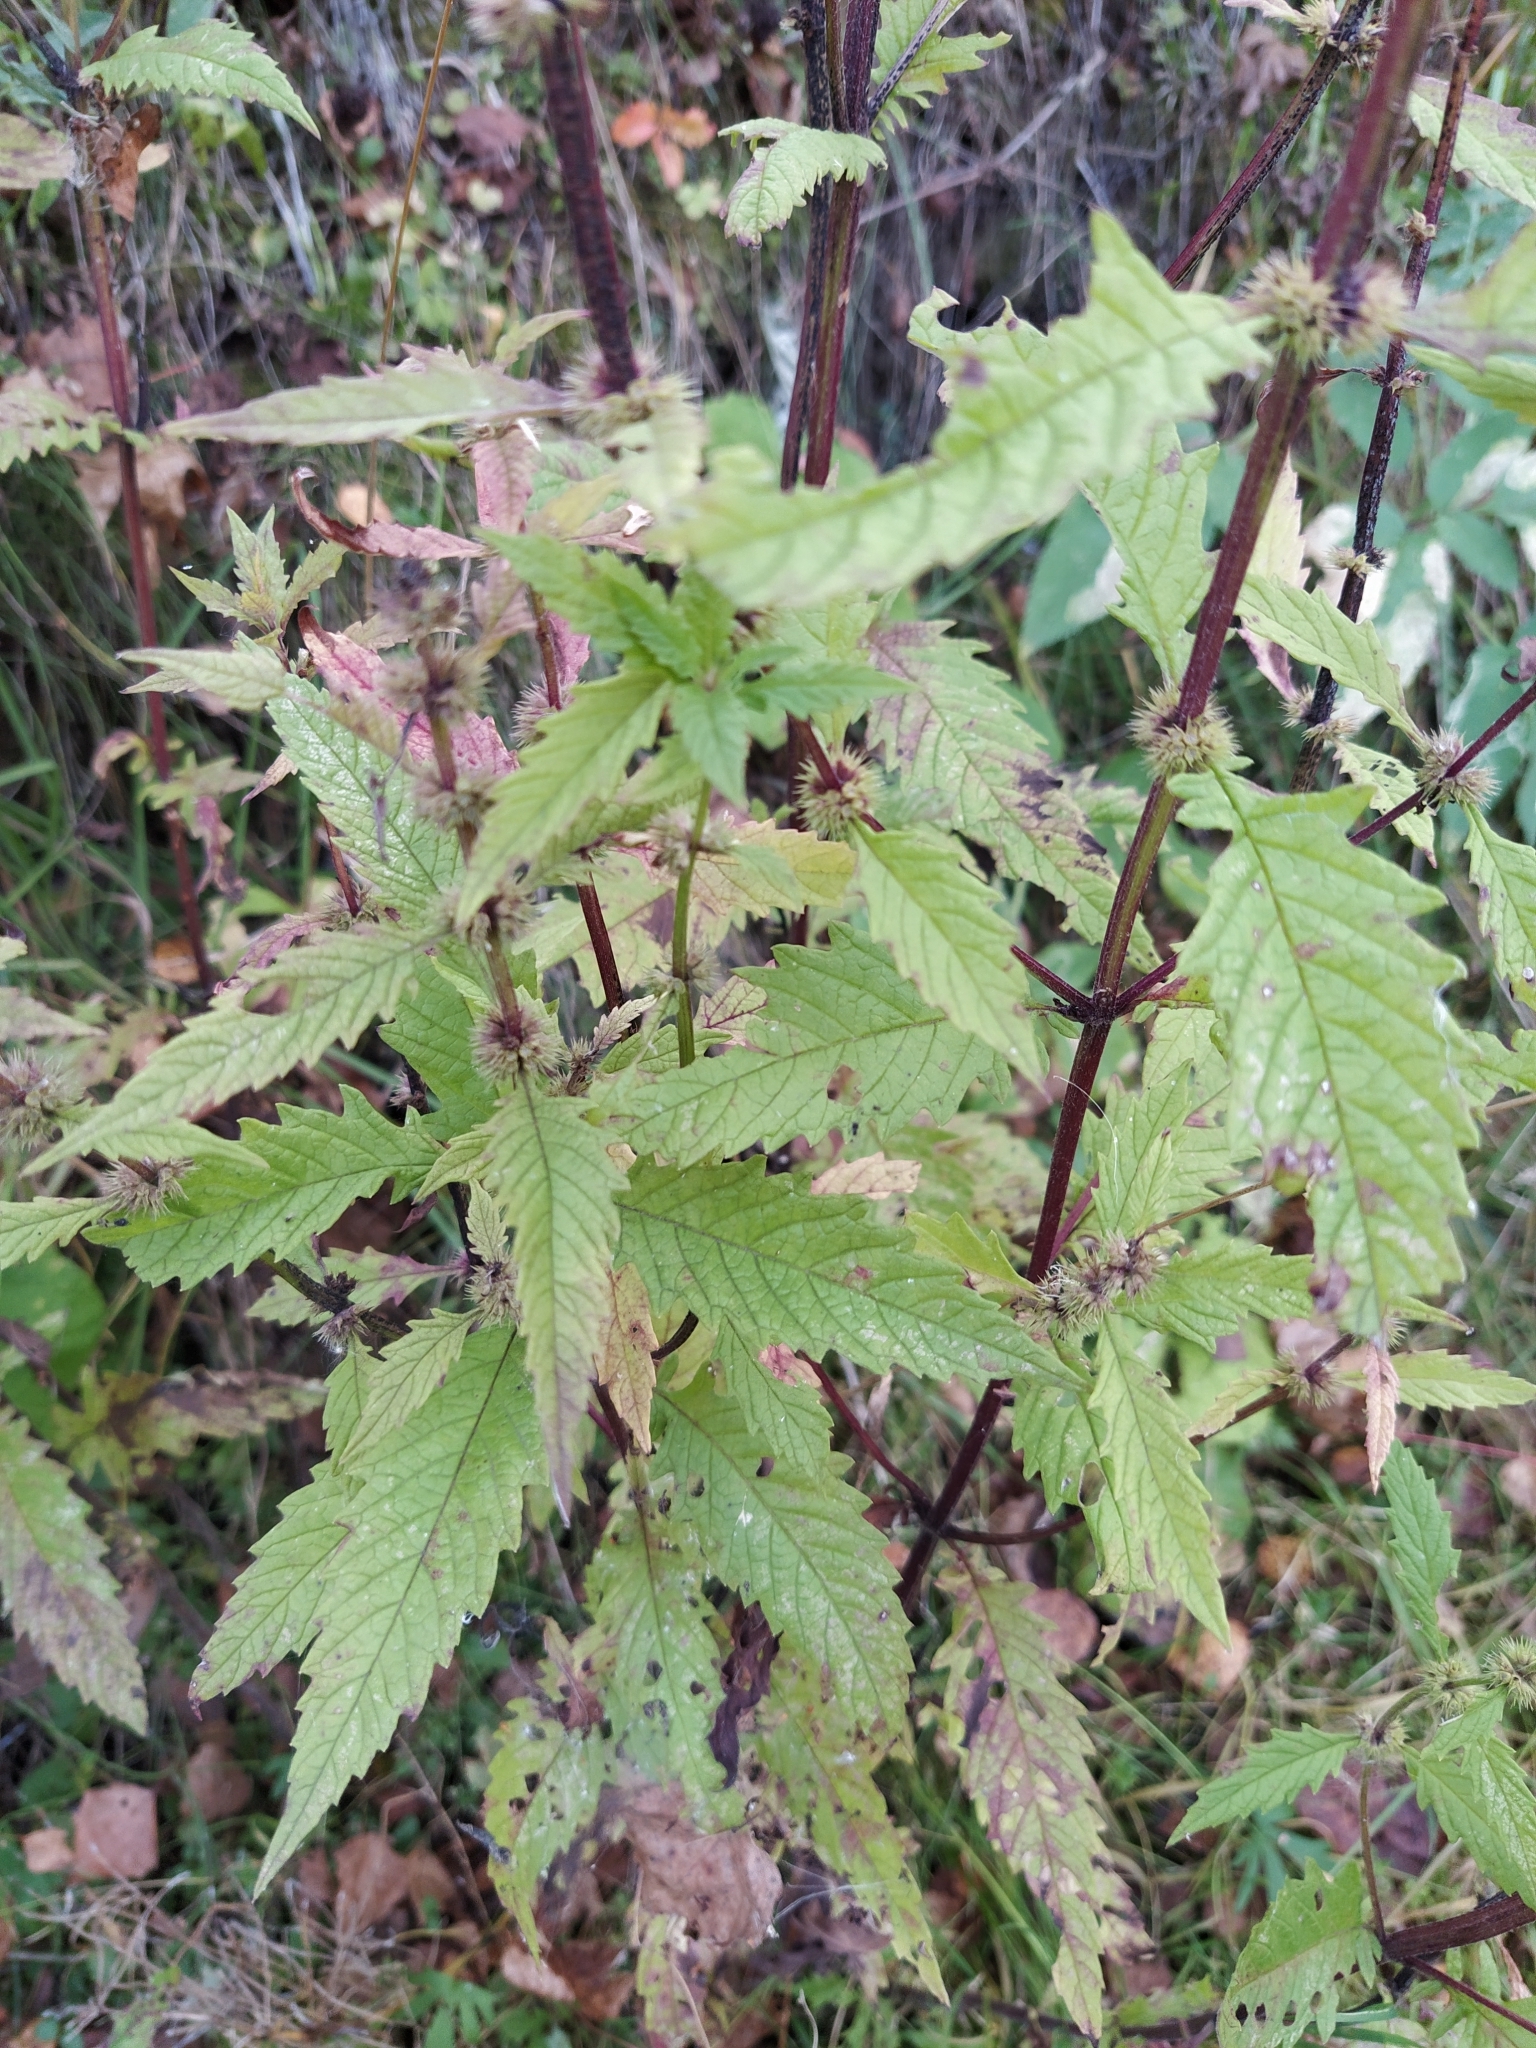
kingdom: Plantae
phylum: Tracheophyta
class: Magnoliopsida
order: Lamiales
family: Lamiaceae
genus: Lycopus
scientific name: Lycopus europaeus
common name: European bugleweed
